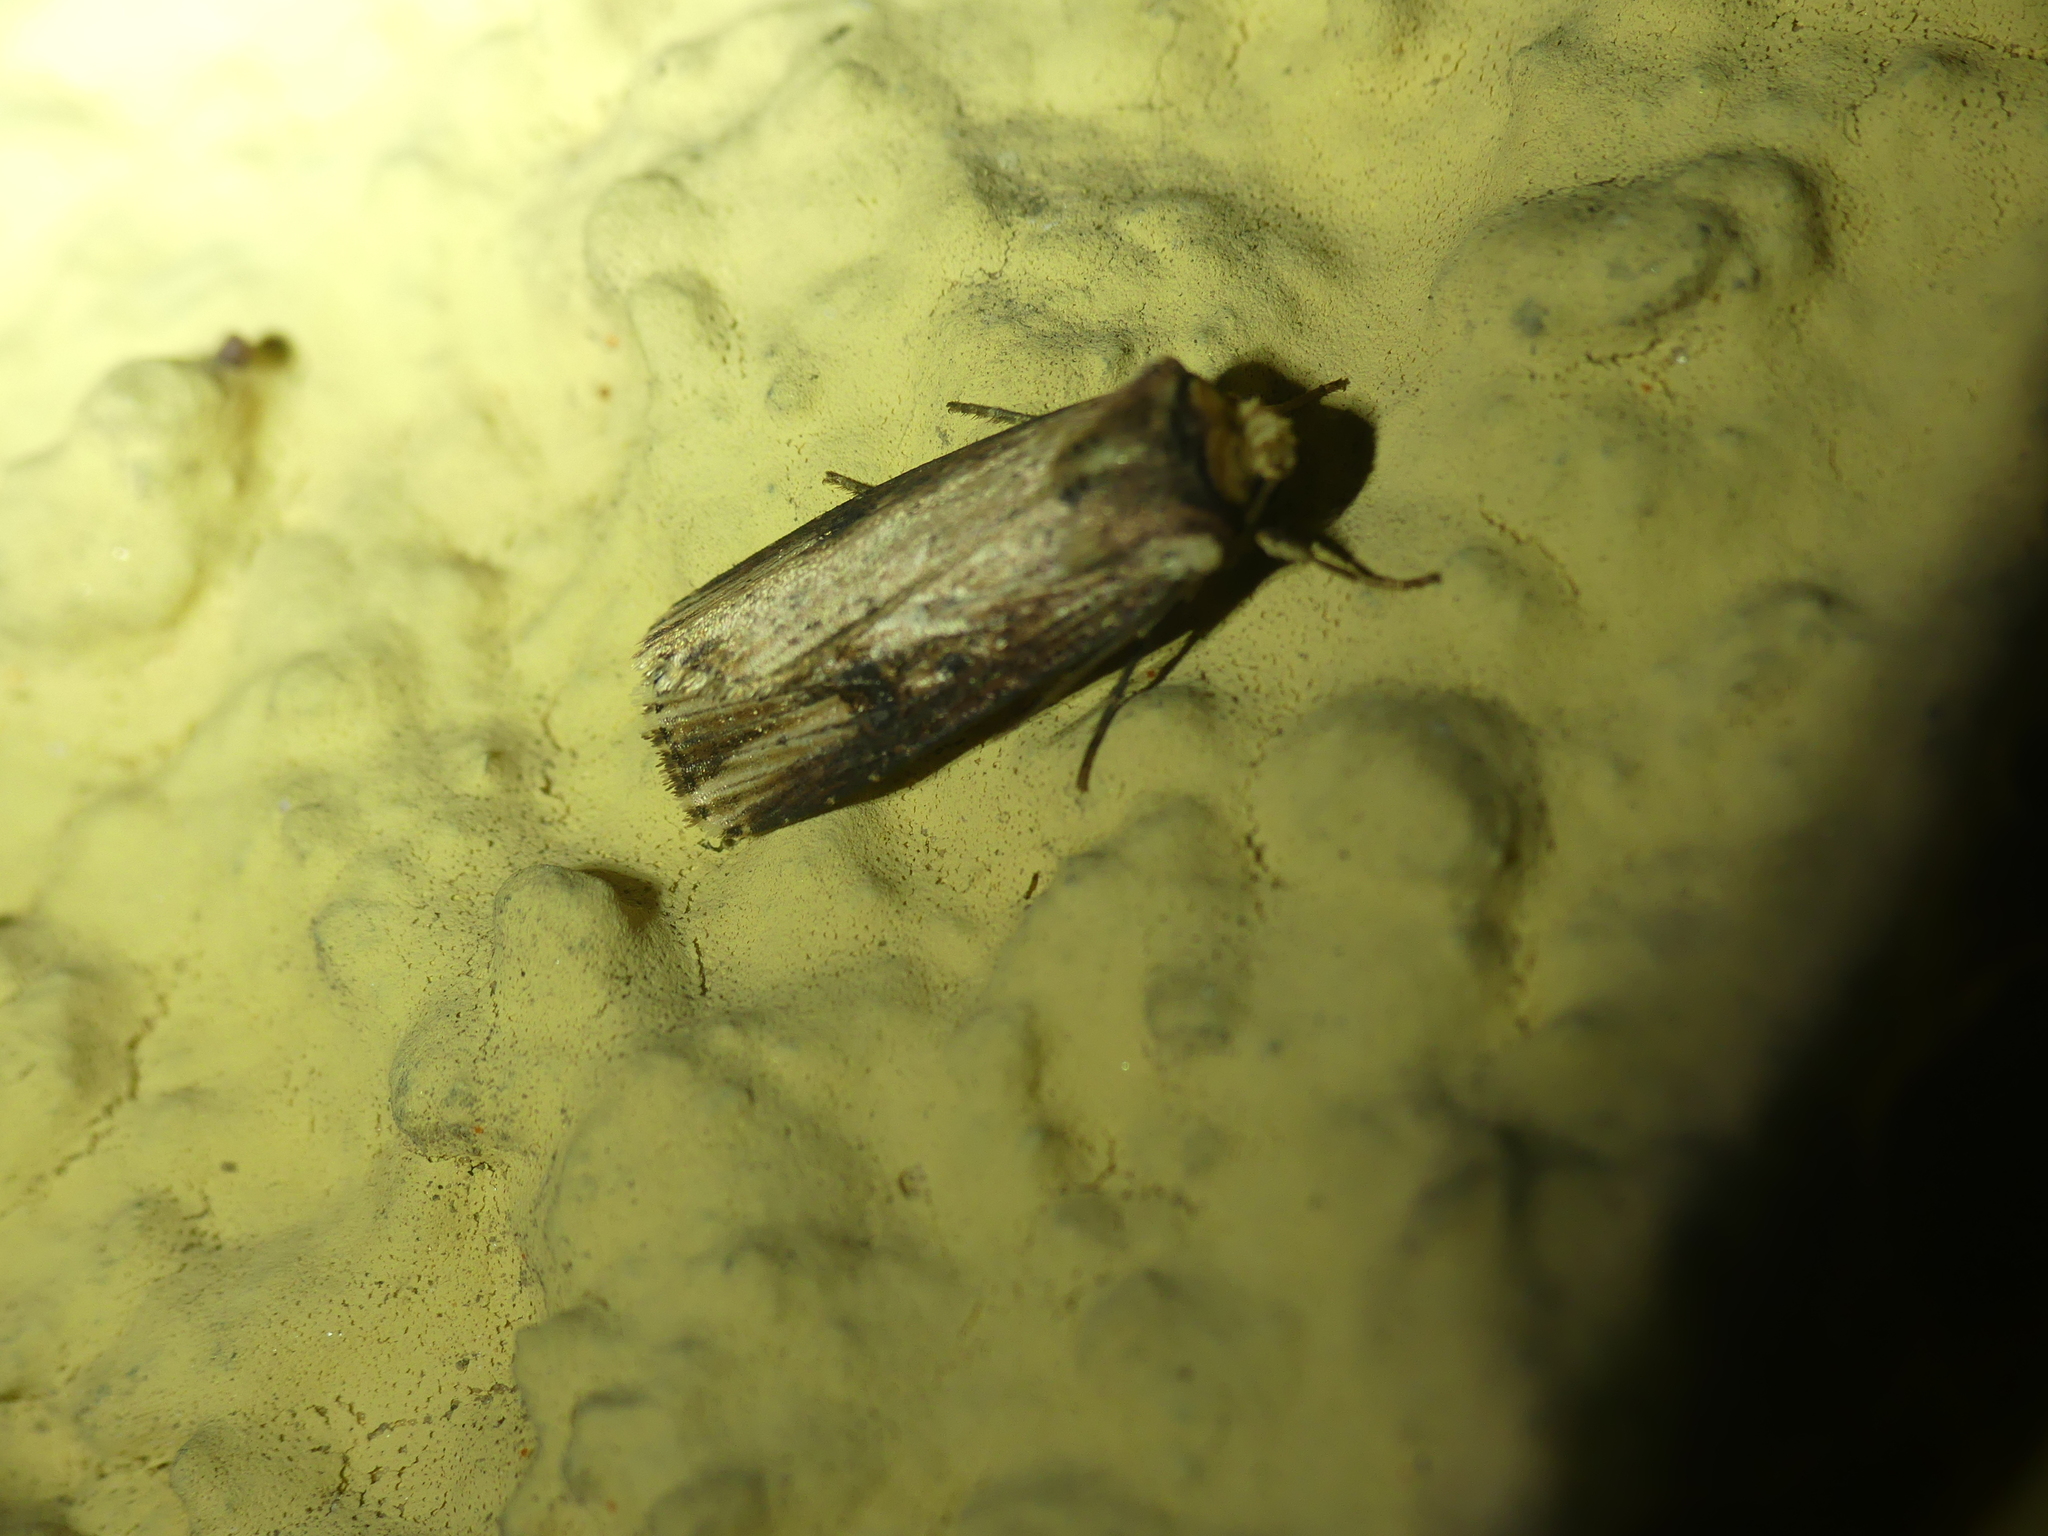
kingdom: Animalia
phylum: Arthropoda
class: Insecta
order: Lepidoptera
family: Noctuidae
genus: Axylia
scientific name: Axylia putris
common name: Flame
